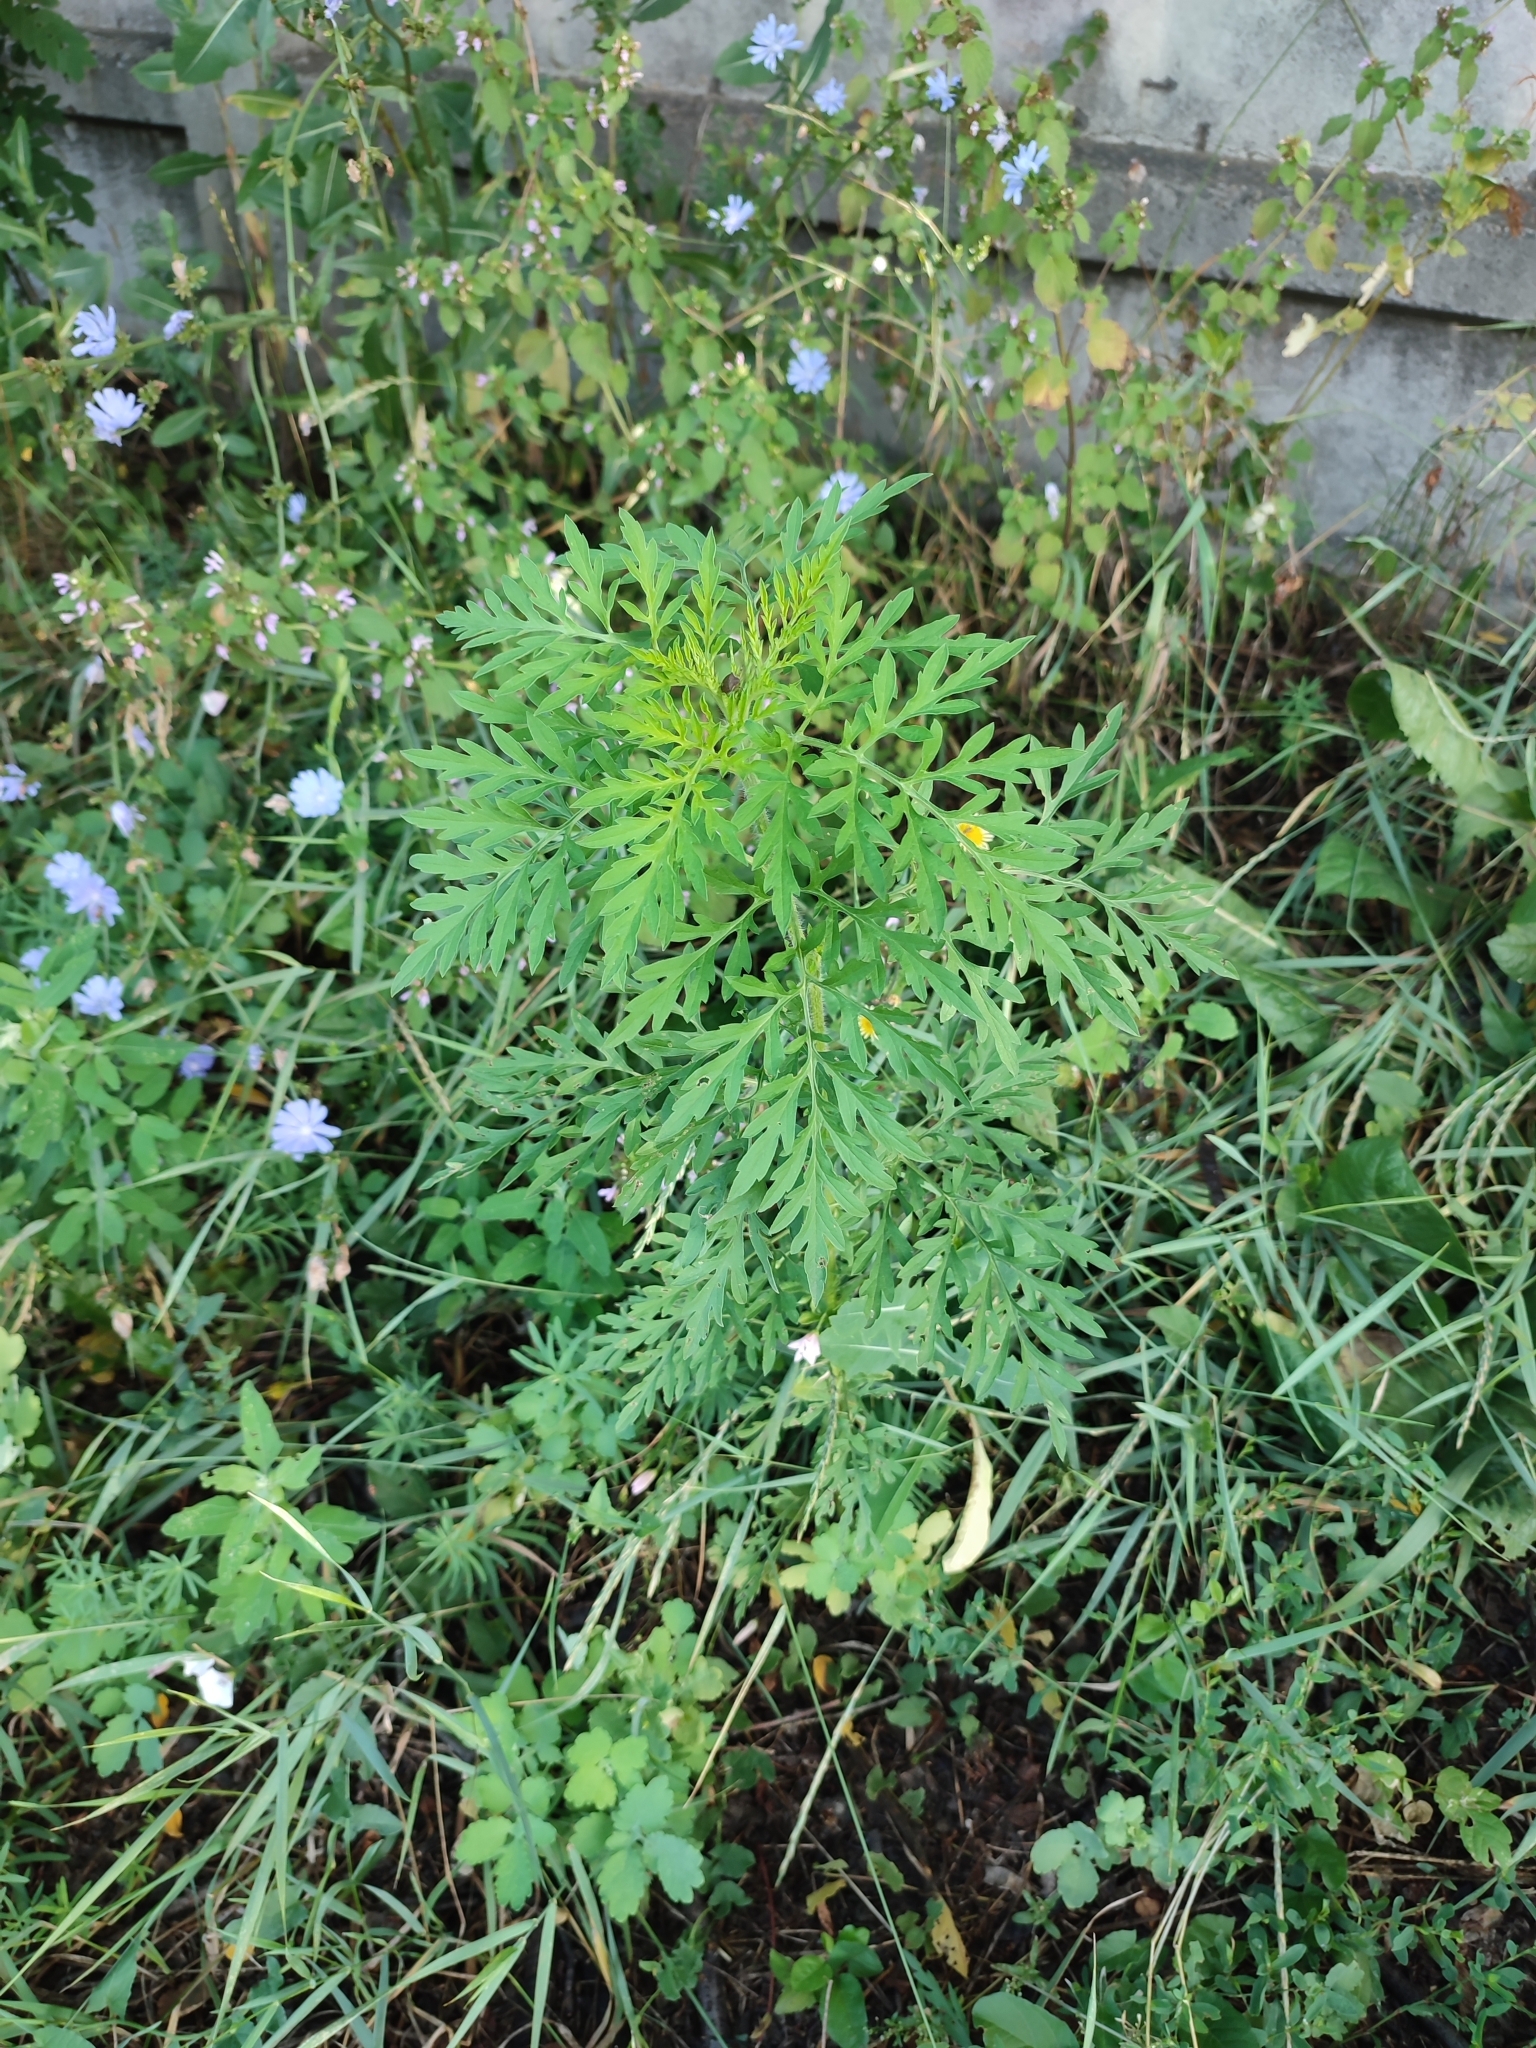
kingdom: Plantae
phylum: Tracheophyta
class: Magnoliopsida
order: Asterales
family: Asteraceae
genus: Ambrosia
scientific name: Ambrosia artemisiifolia
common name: Annual ragweed
